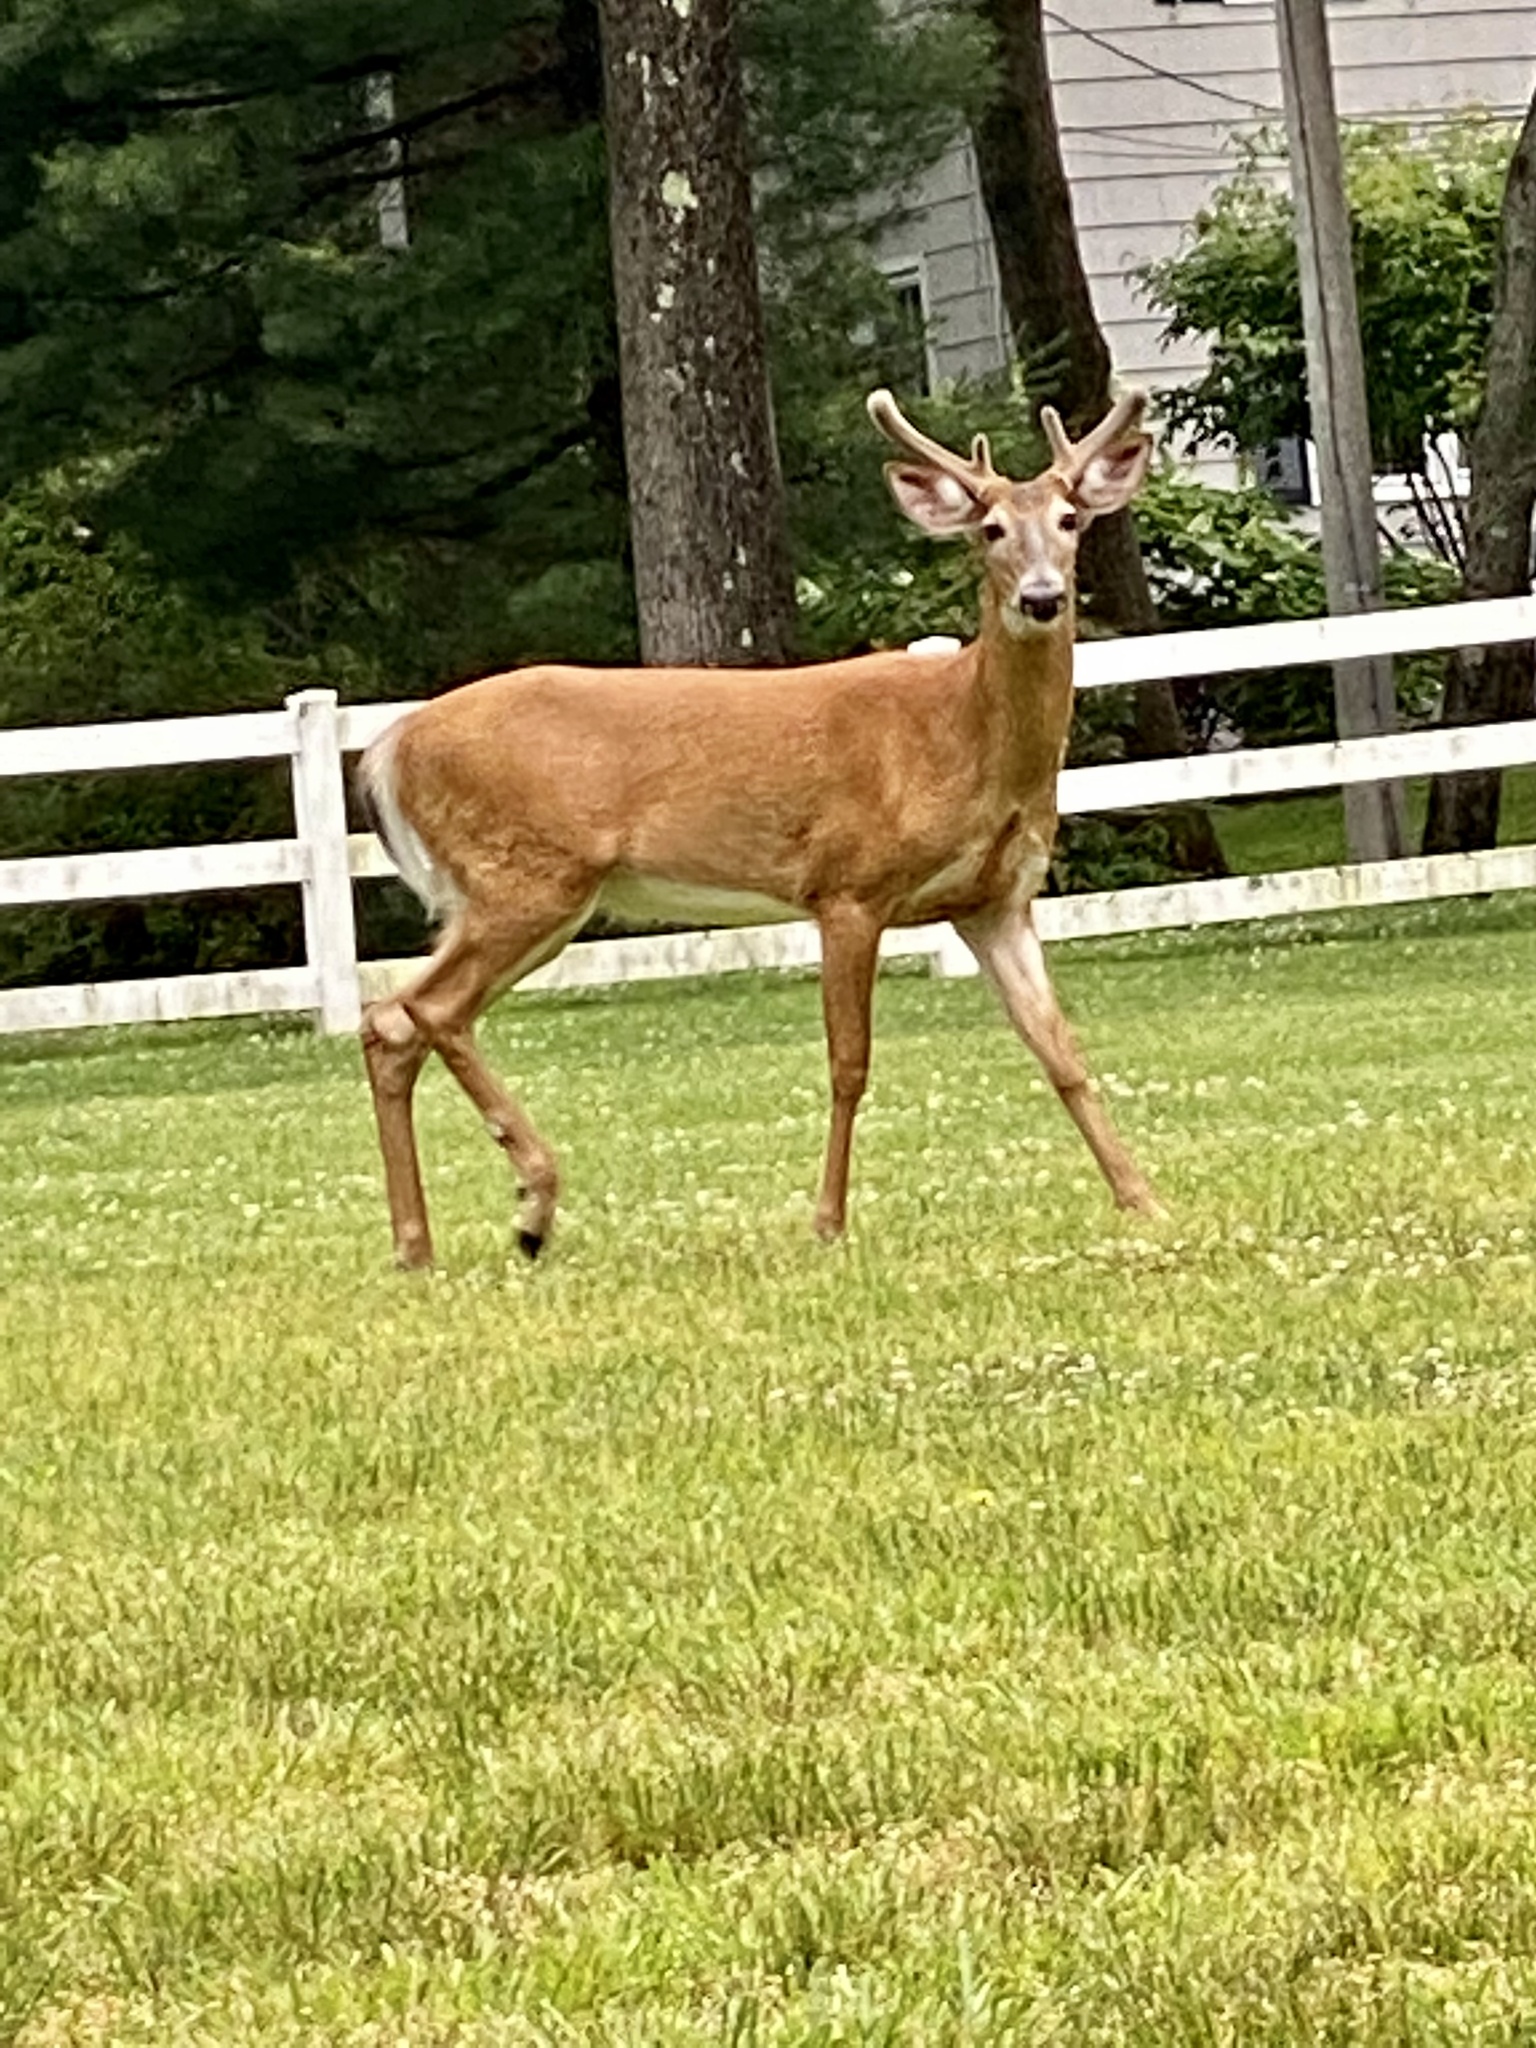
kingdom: Animalia
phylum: Chordata
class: Mammalia
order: Artiodactyla
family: Cervidae
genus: Odocoileus
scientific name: Odocoileus virginianus
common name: White-tailed deer
